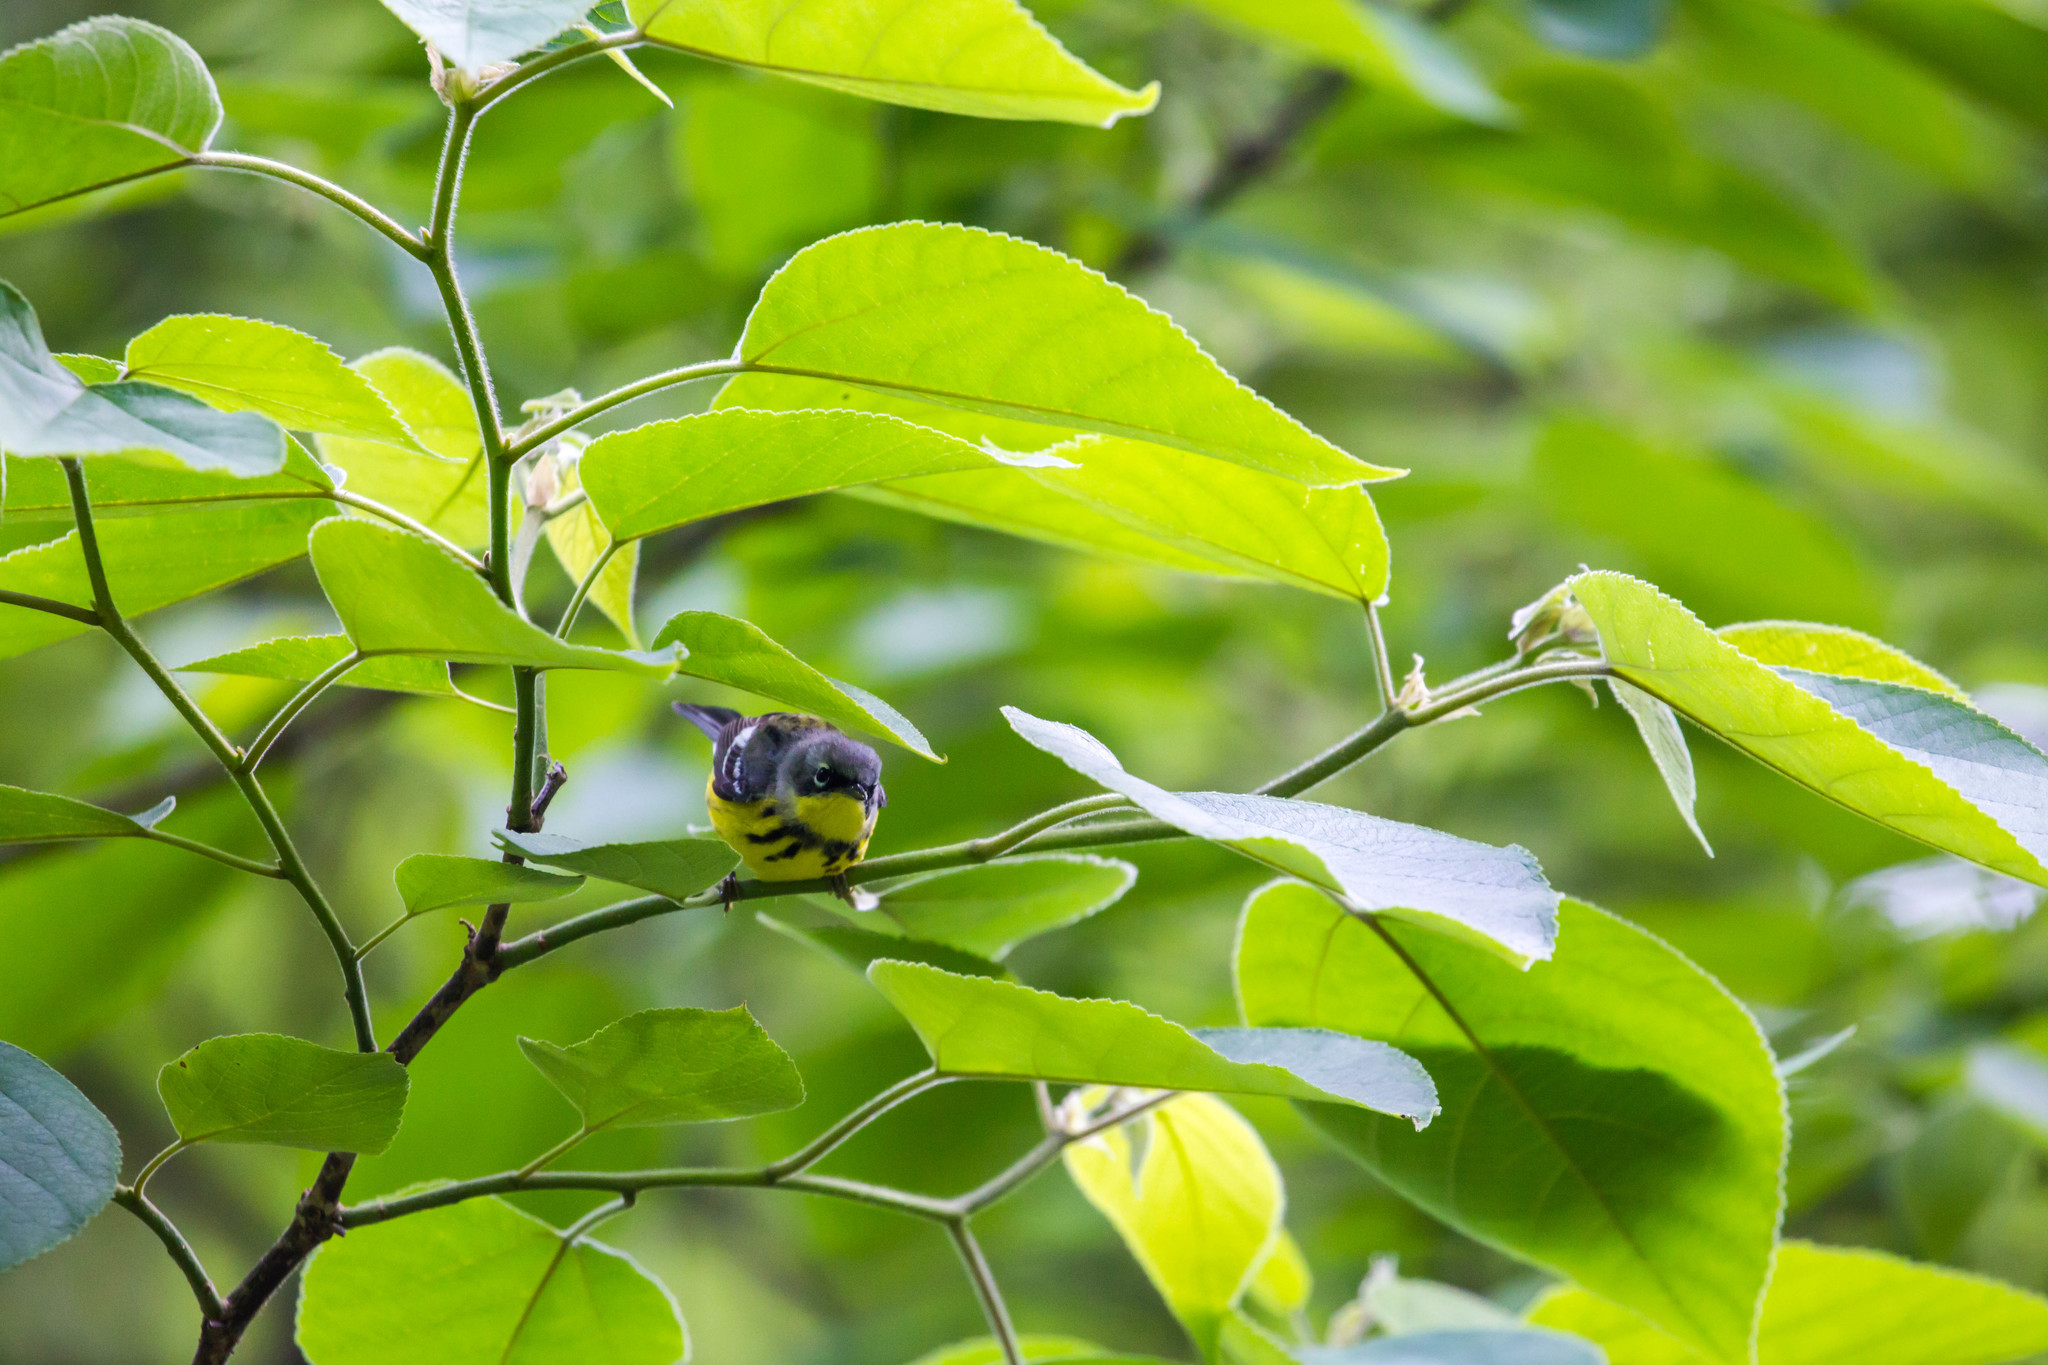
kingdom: Animalia
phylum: Chordata
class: Aves
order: Passeriformes
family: Parulidae
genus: Setophaga
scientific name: Setophaga magnolia
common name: Magnolia warbler
